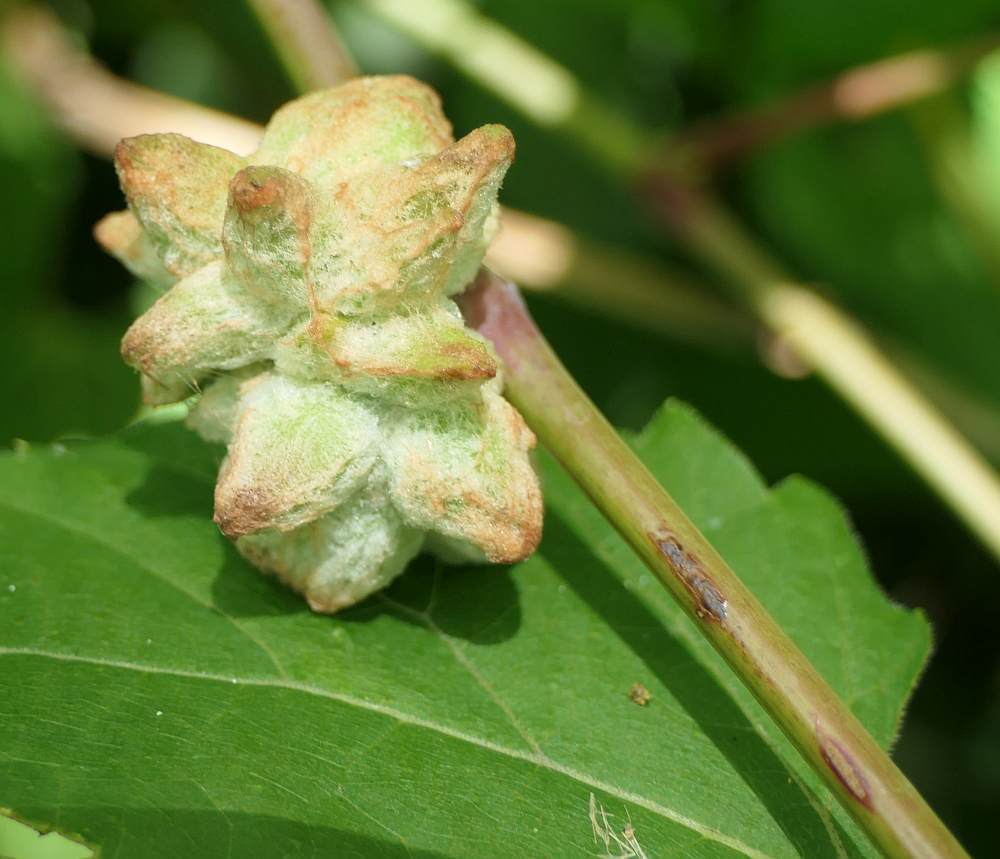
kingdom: Animalia
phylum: Arthropoda
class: Insecta
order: Diptera
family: Cecidomyiidae
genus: Ampelomyia
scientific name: Ampelomyia vitiscoryloides
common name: Grape filbert gall
